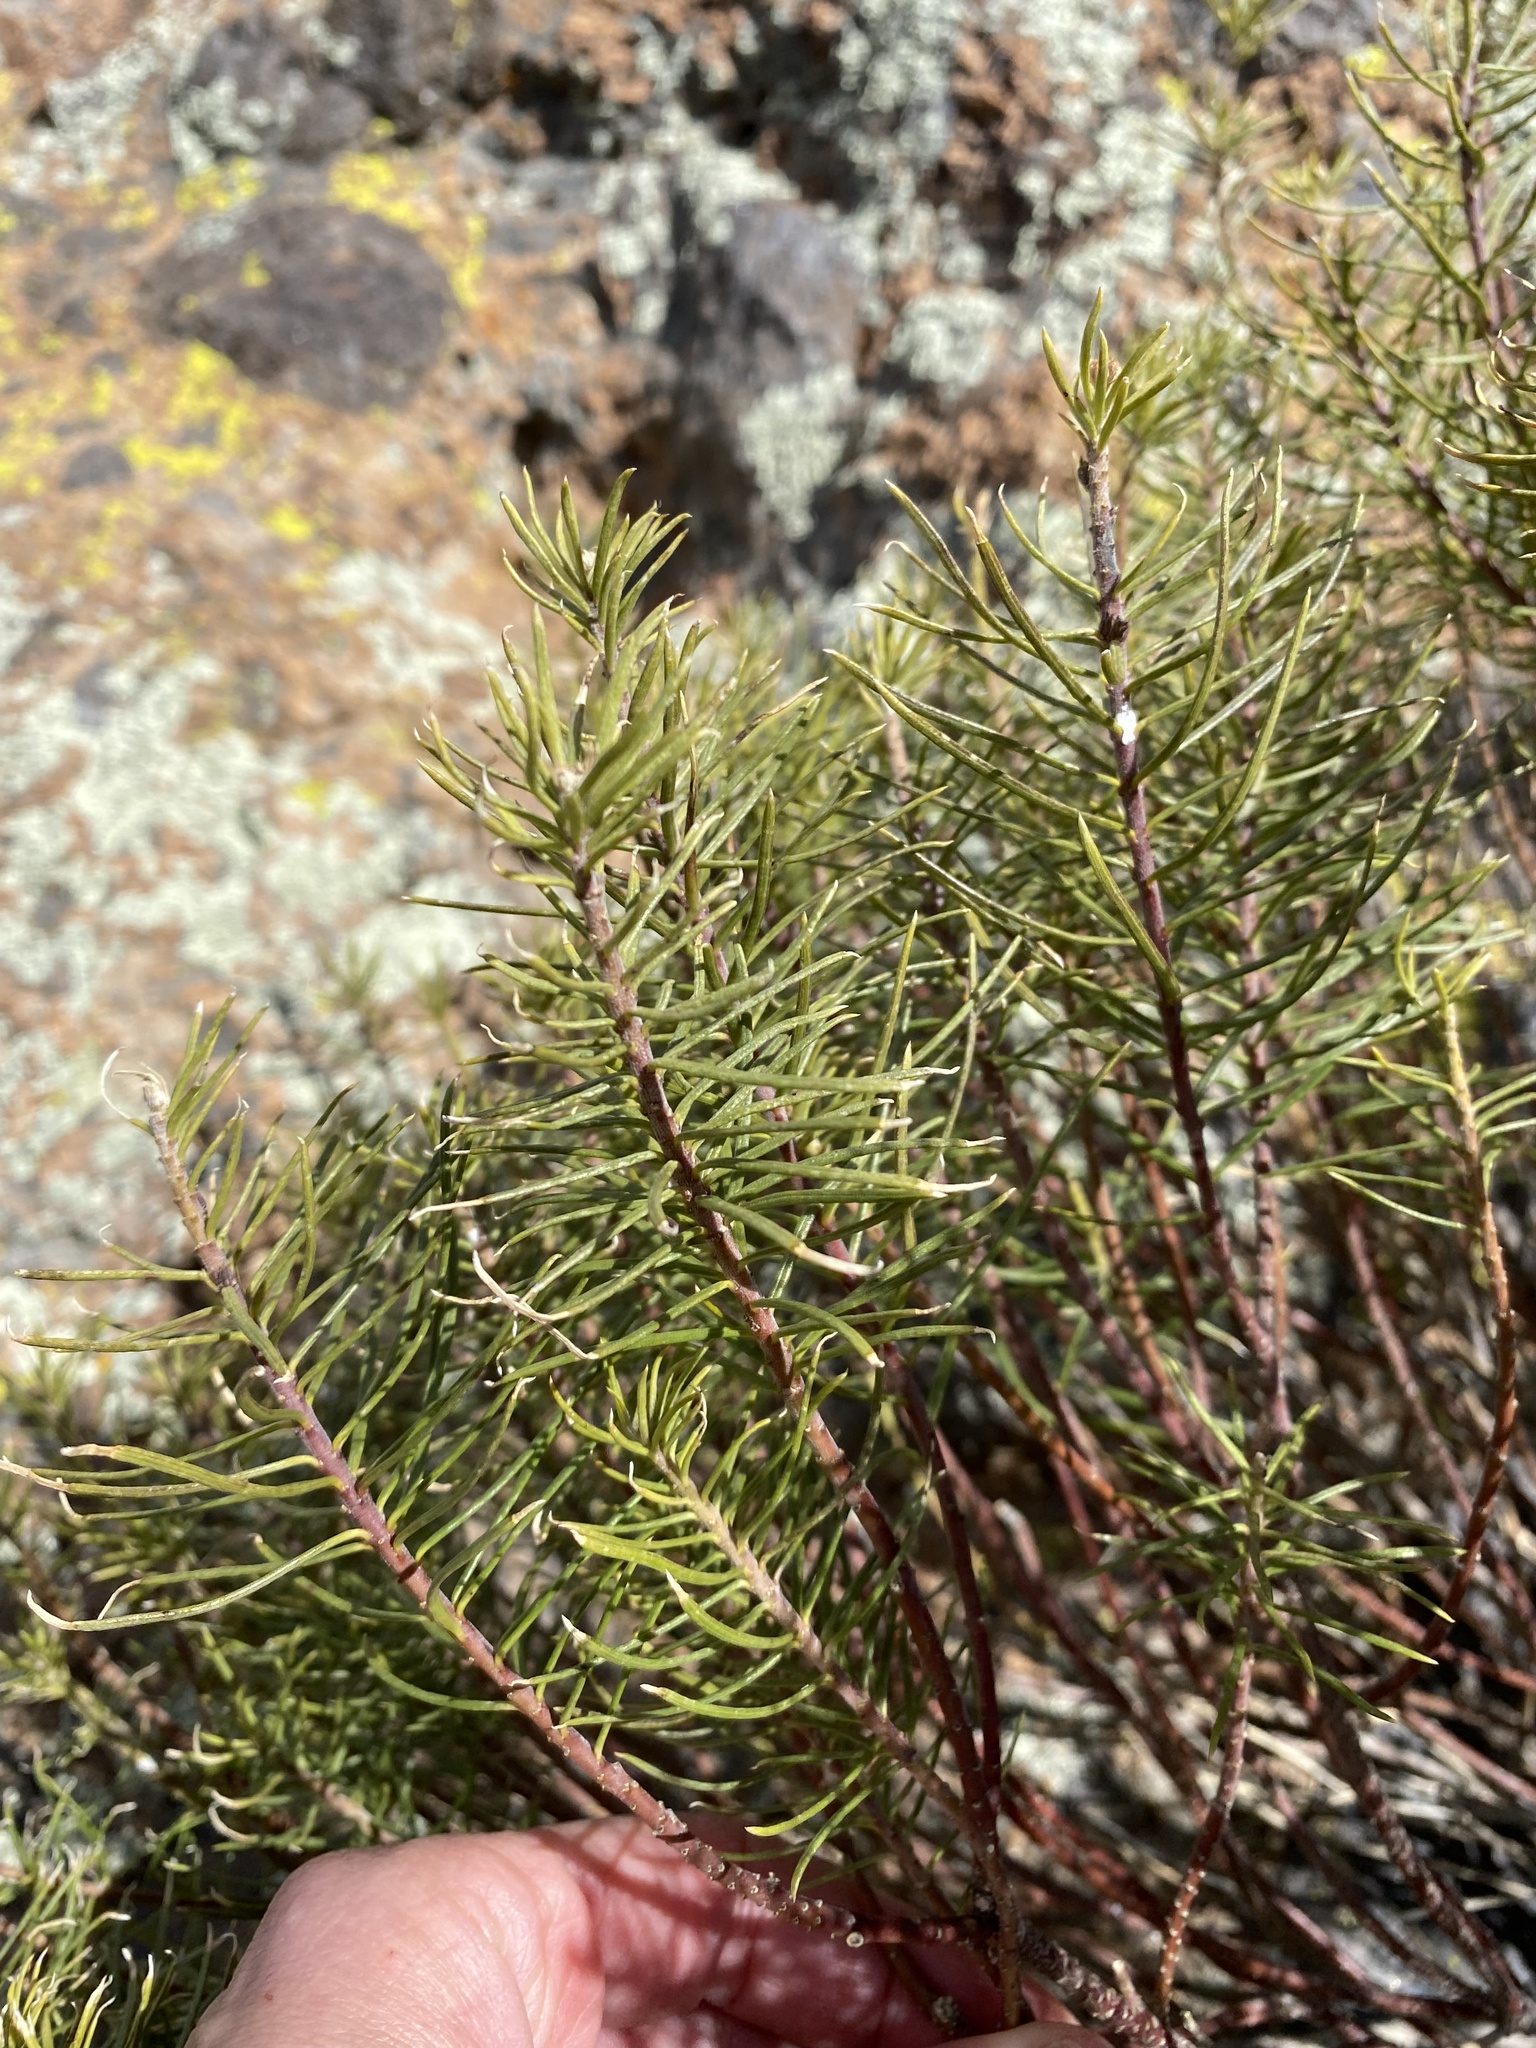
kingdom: Plantae
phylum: Tracheophyta
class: Magnoliopsida
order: Gentianales
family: Apocynaceae
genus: Asclepias
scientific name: Asclepias linaria
